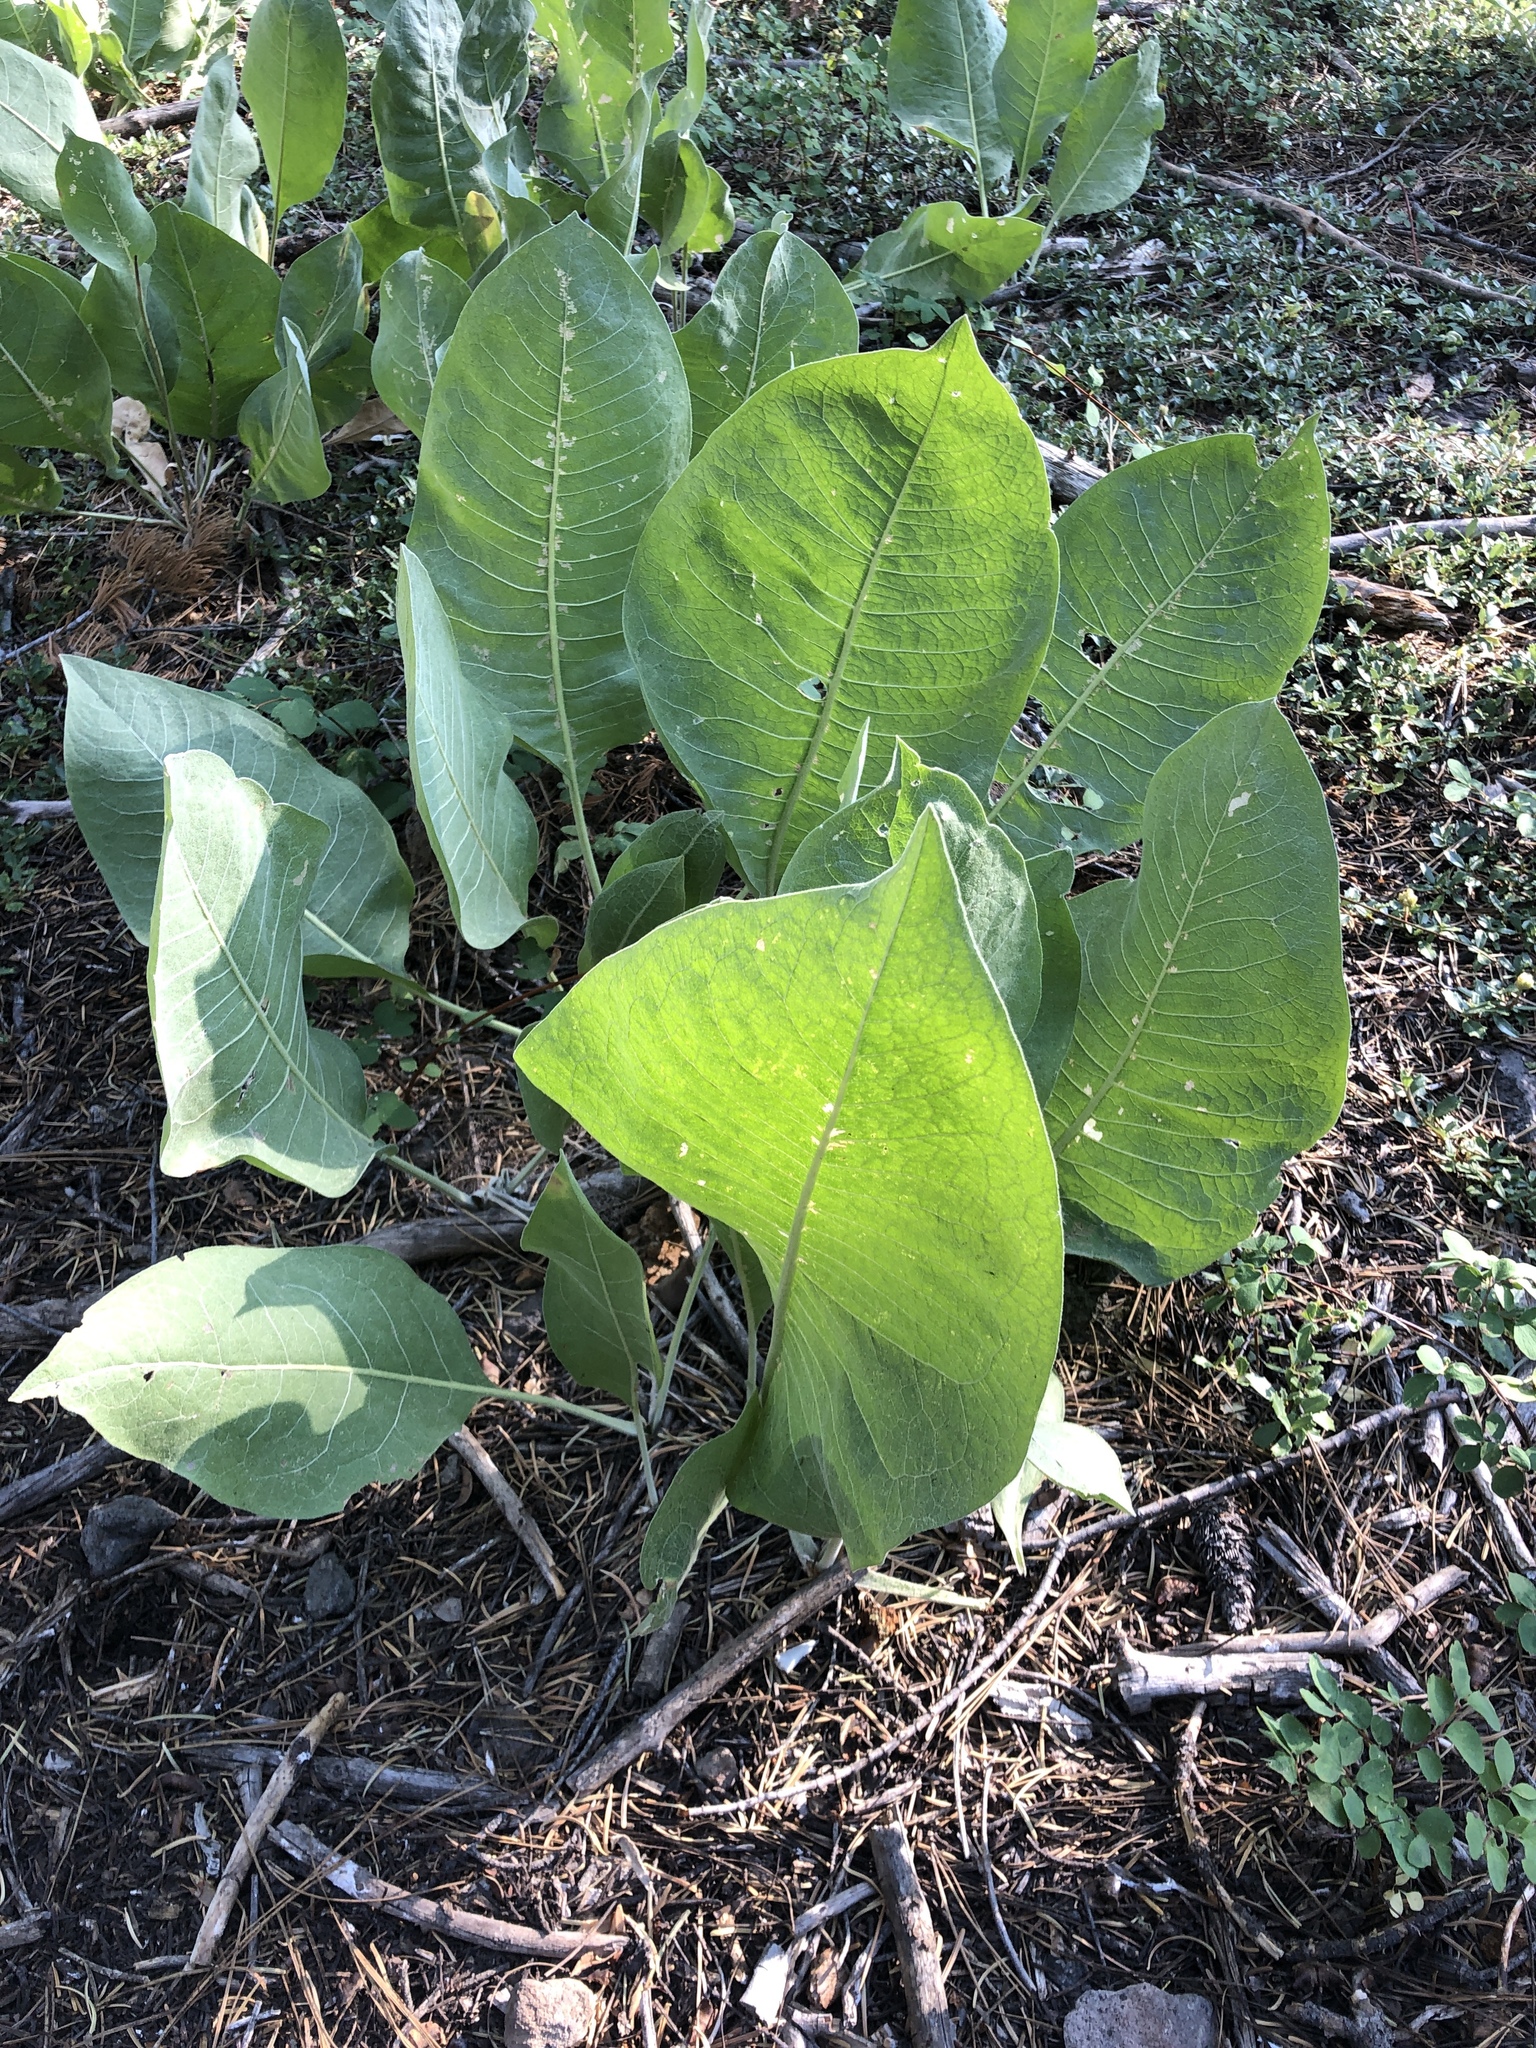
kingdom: Plantae
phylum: Tracheophyta
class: Magnoliopsida
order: Asterales
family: Asteraceae
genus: Wyethia
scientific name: Wyethia mollis
